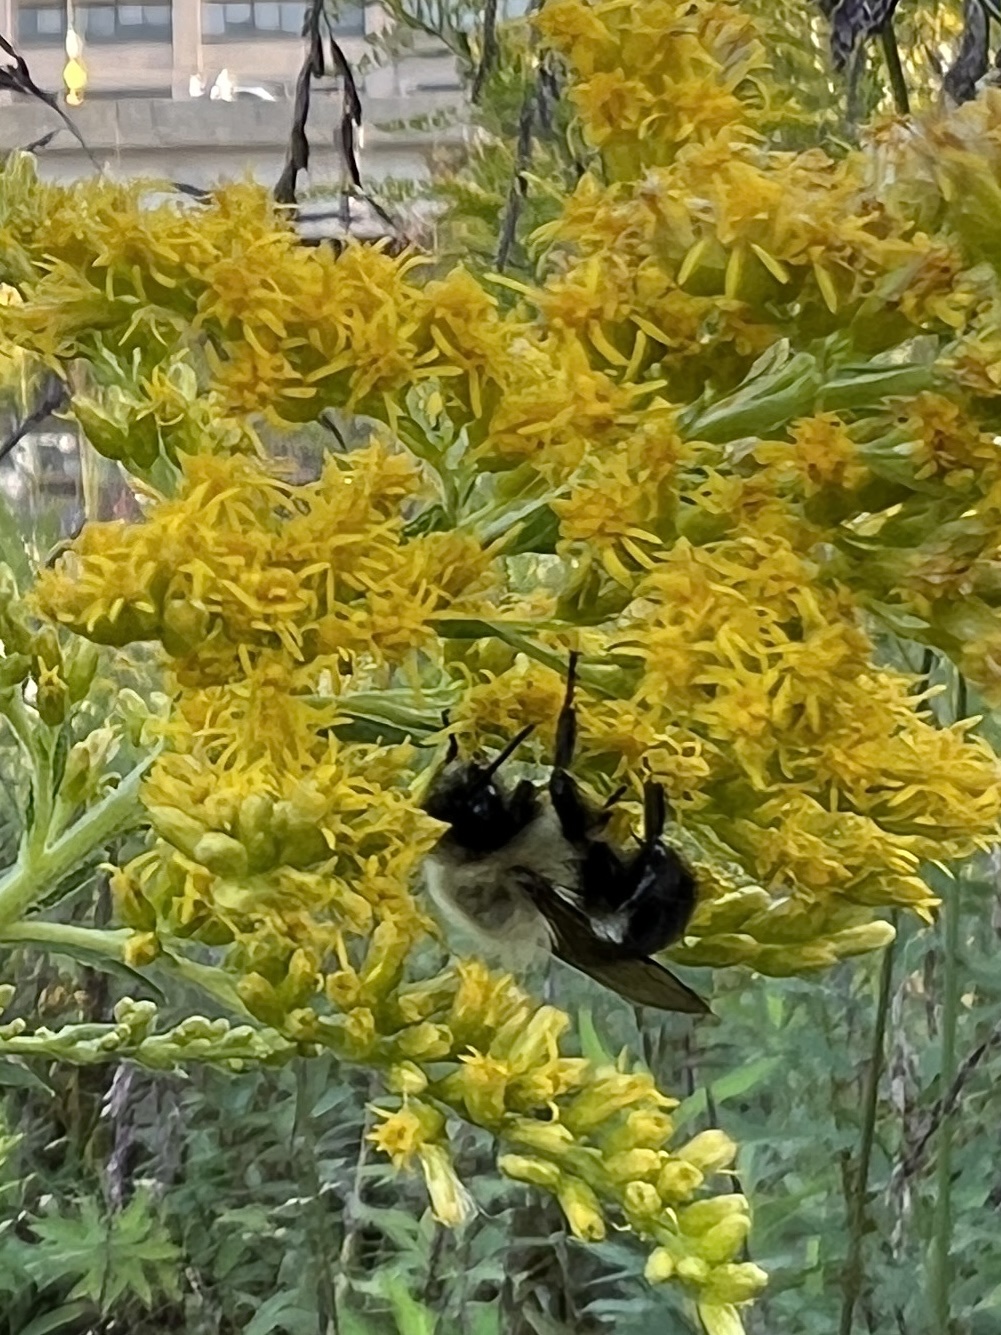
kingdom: Animalia
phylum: Arthropoda
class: Insecta
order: Hymenoptera
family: Apidae
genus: Bombus
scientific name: Bombus impatiens
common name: Common eastern bumble bee
